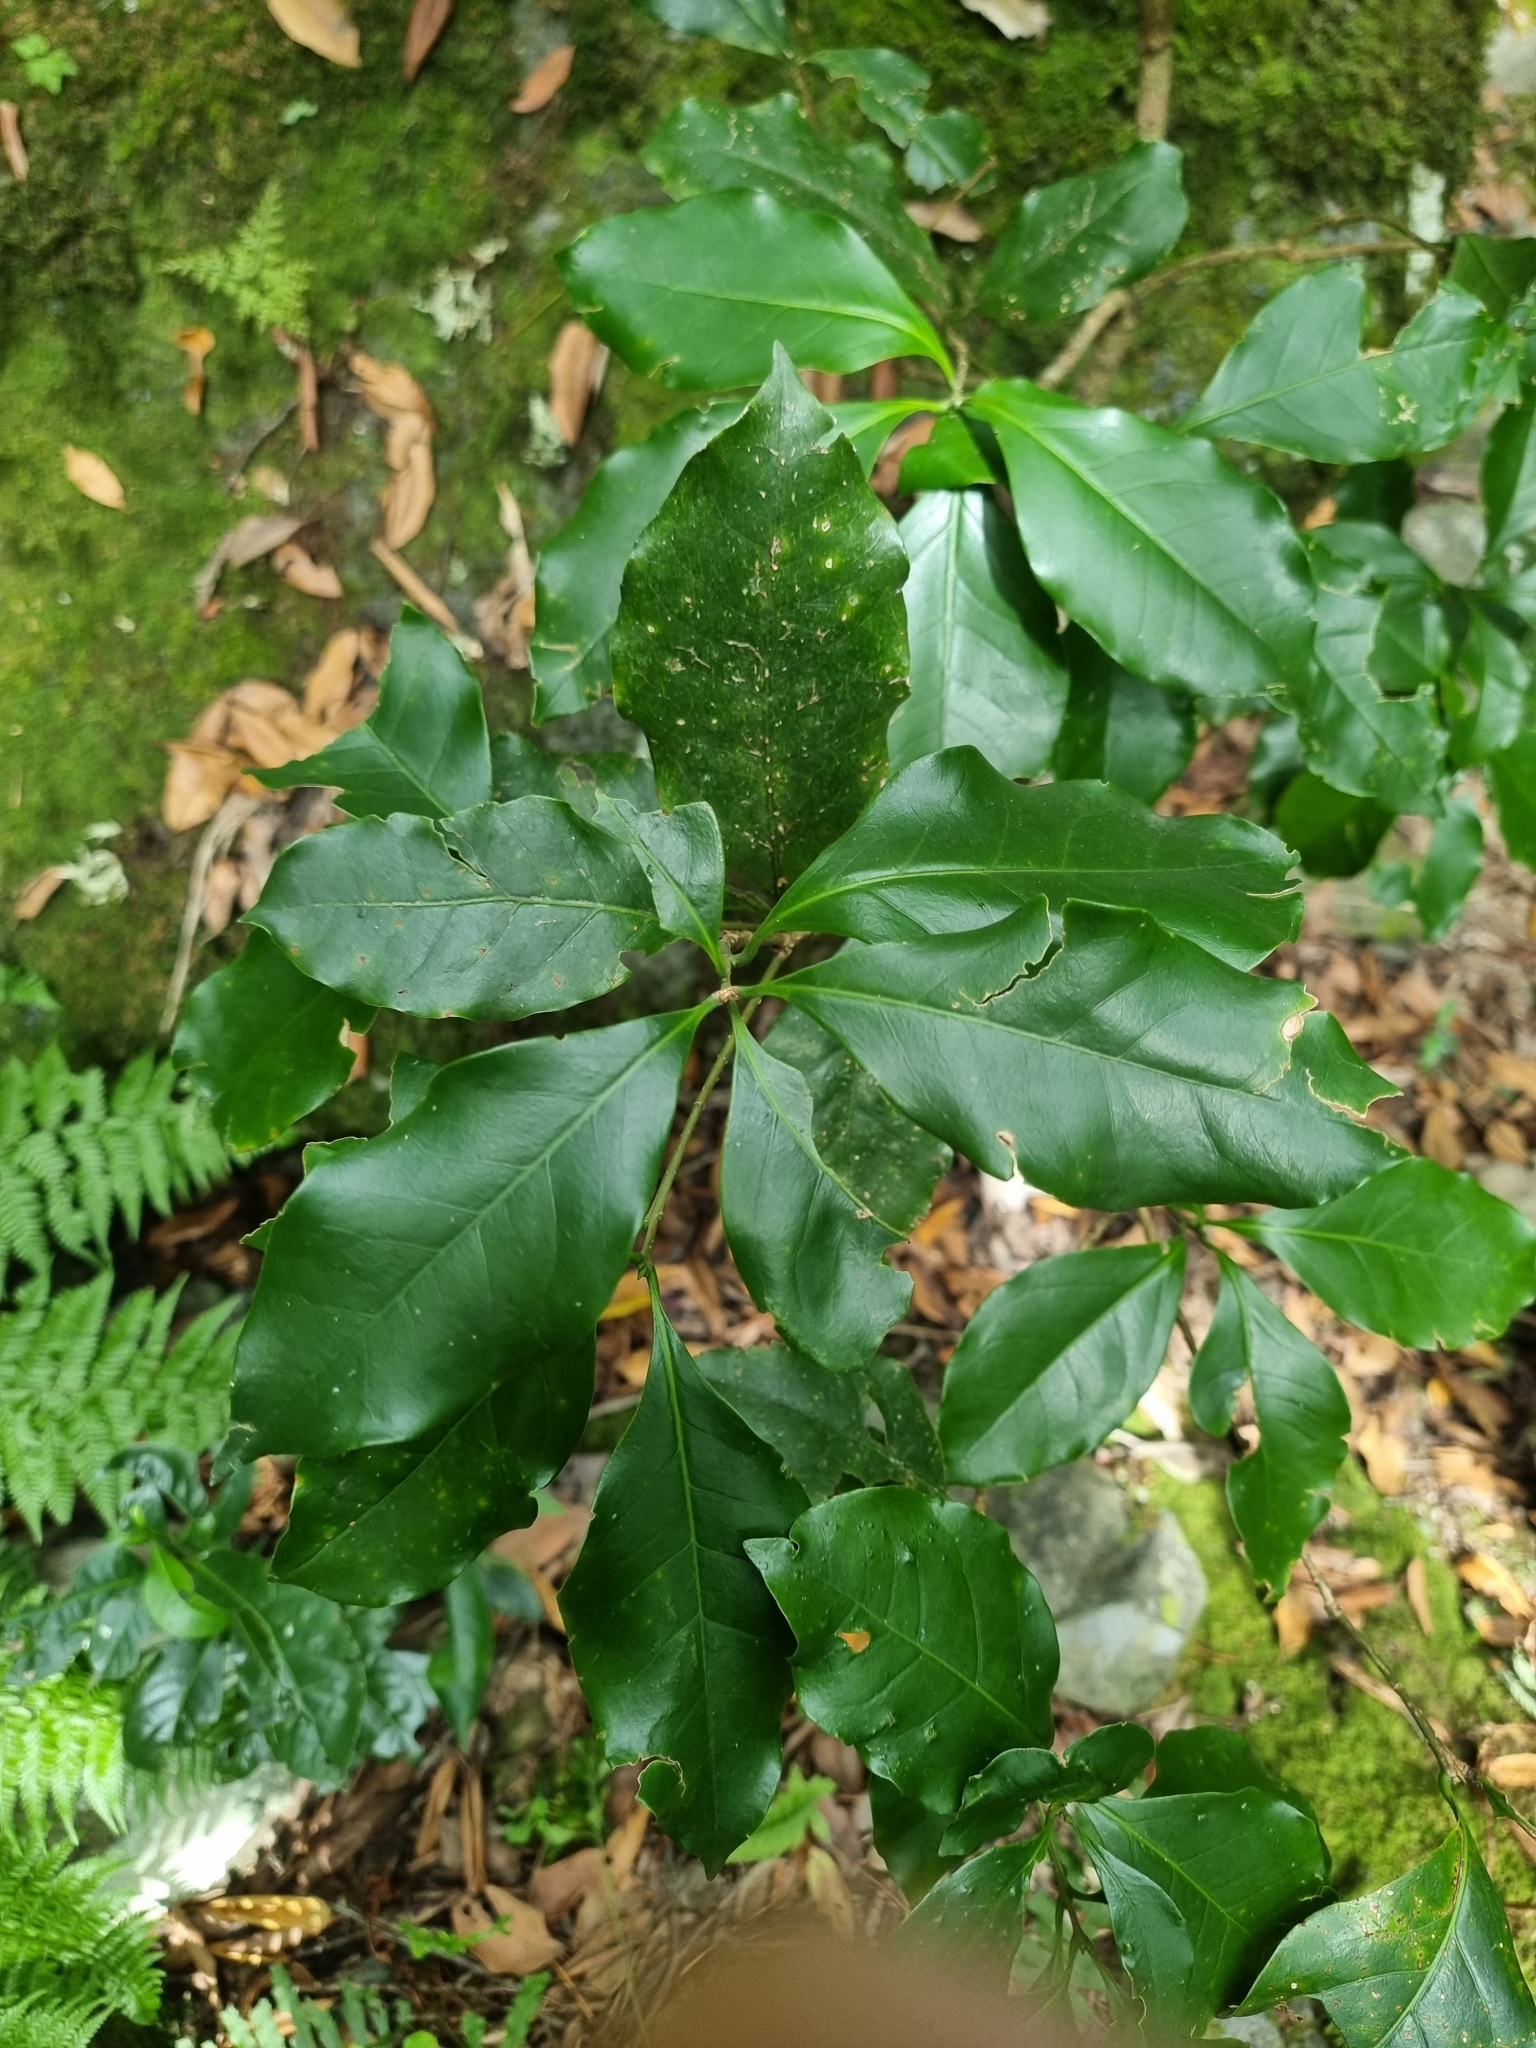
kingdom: Plantae
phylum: Tracheophyta
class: Magnoliopsida
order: Lamiales
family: Oleaceae
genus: Picconia
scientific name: Picconia excelsa
